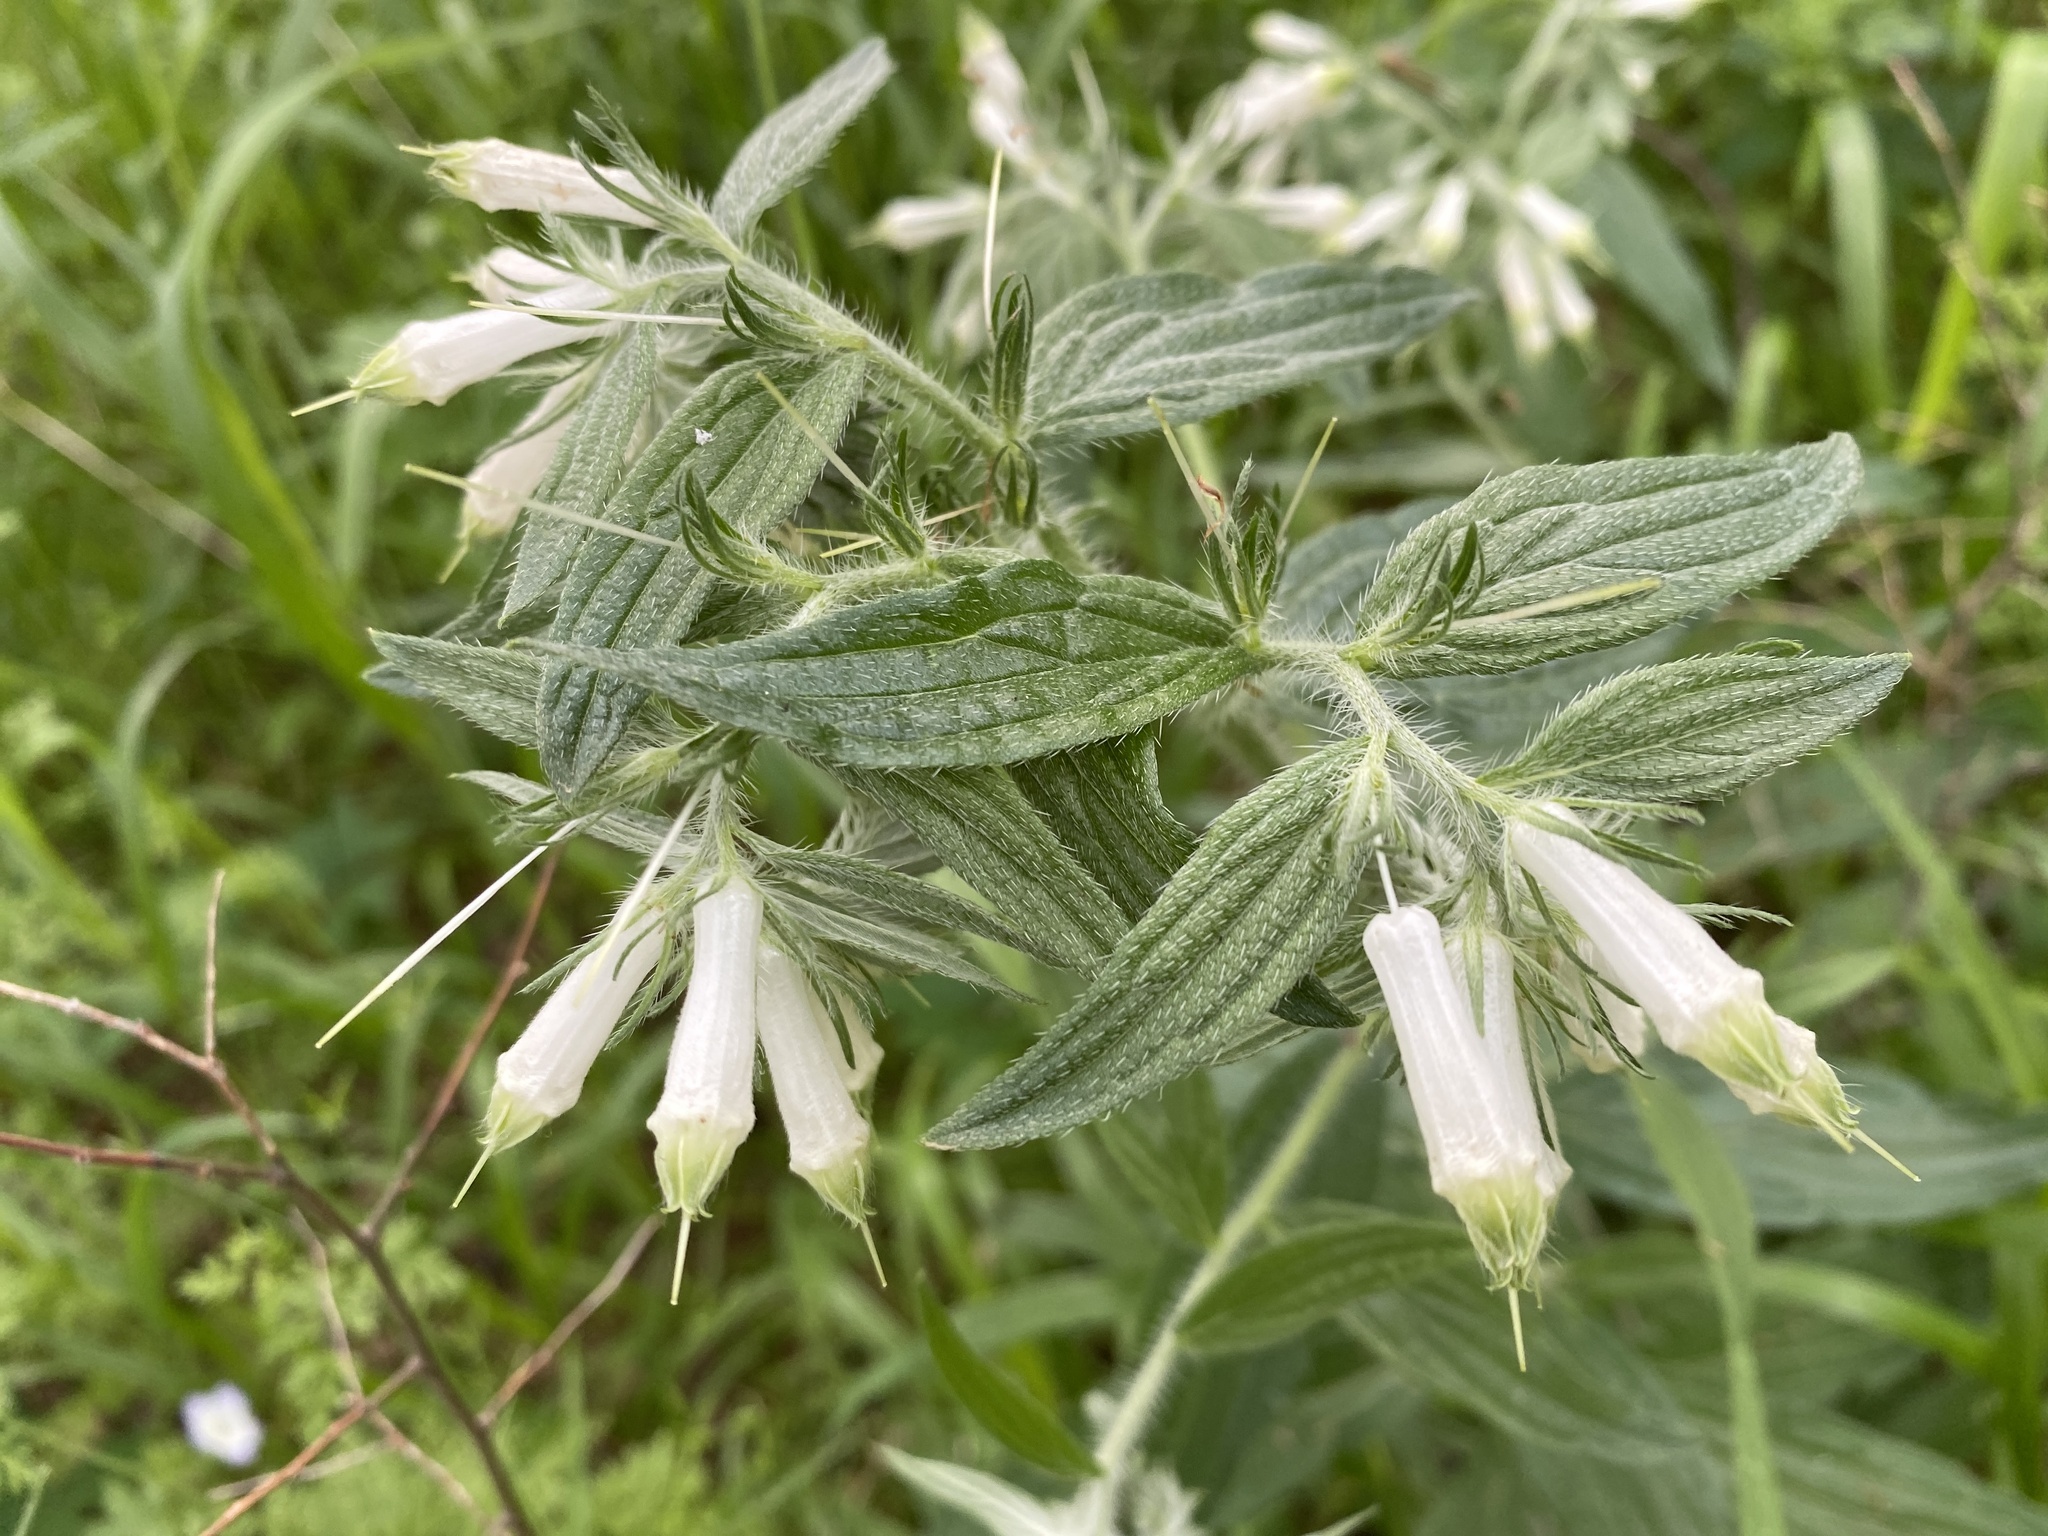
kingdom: Plantae
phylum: Tracheophyta
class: Magnoliopsida
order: Boraginales
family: Boraginaceae
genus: Lithospermum
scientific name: Lithospermum caroliniense
